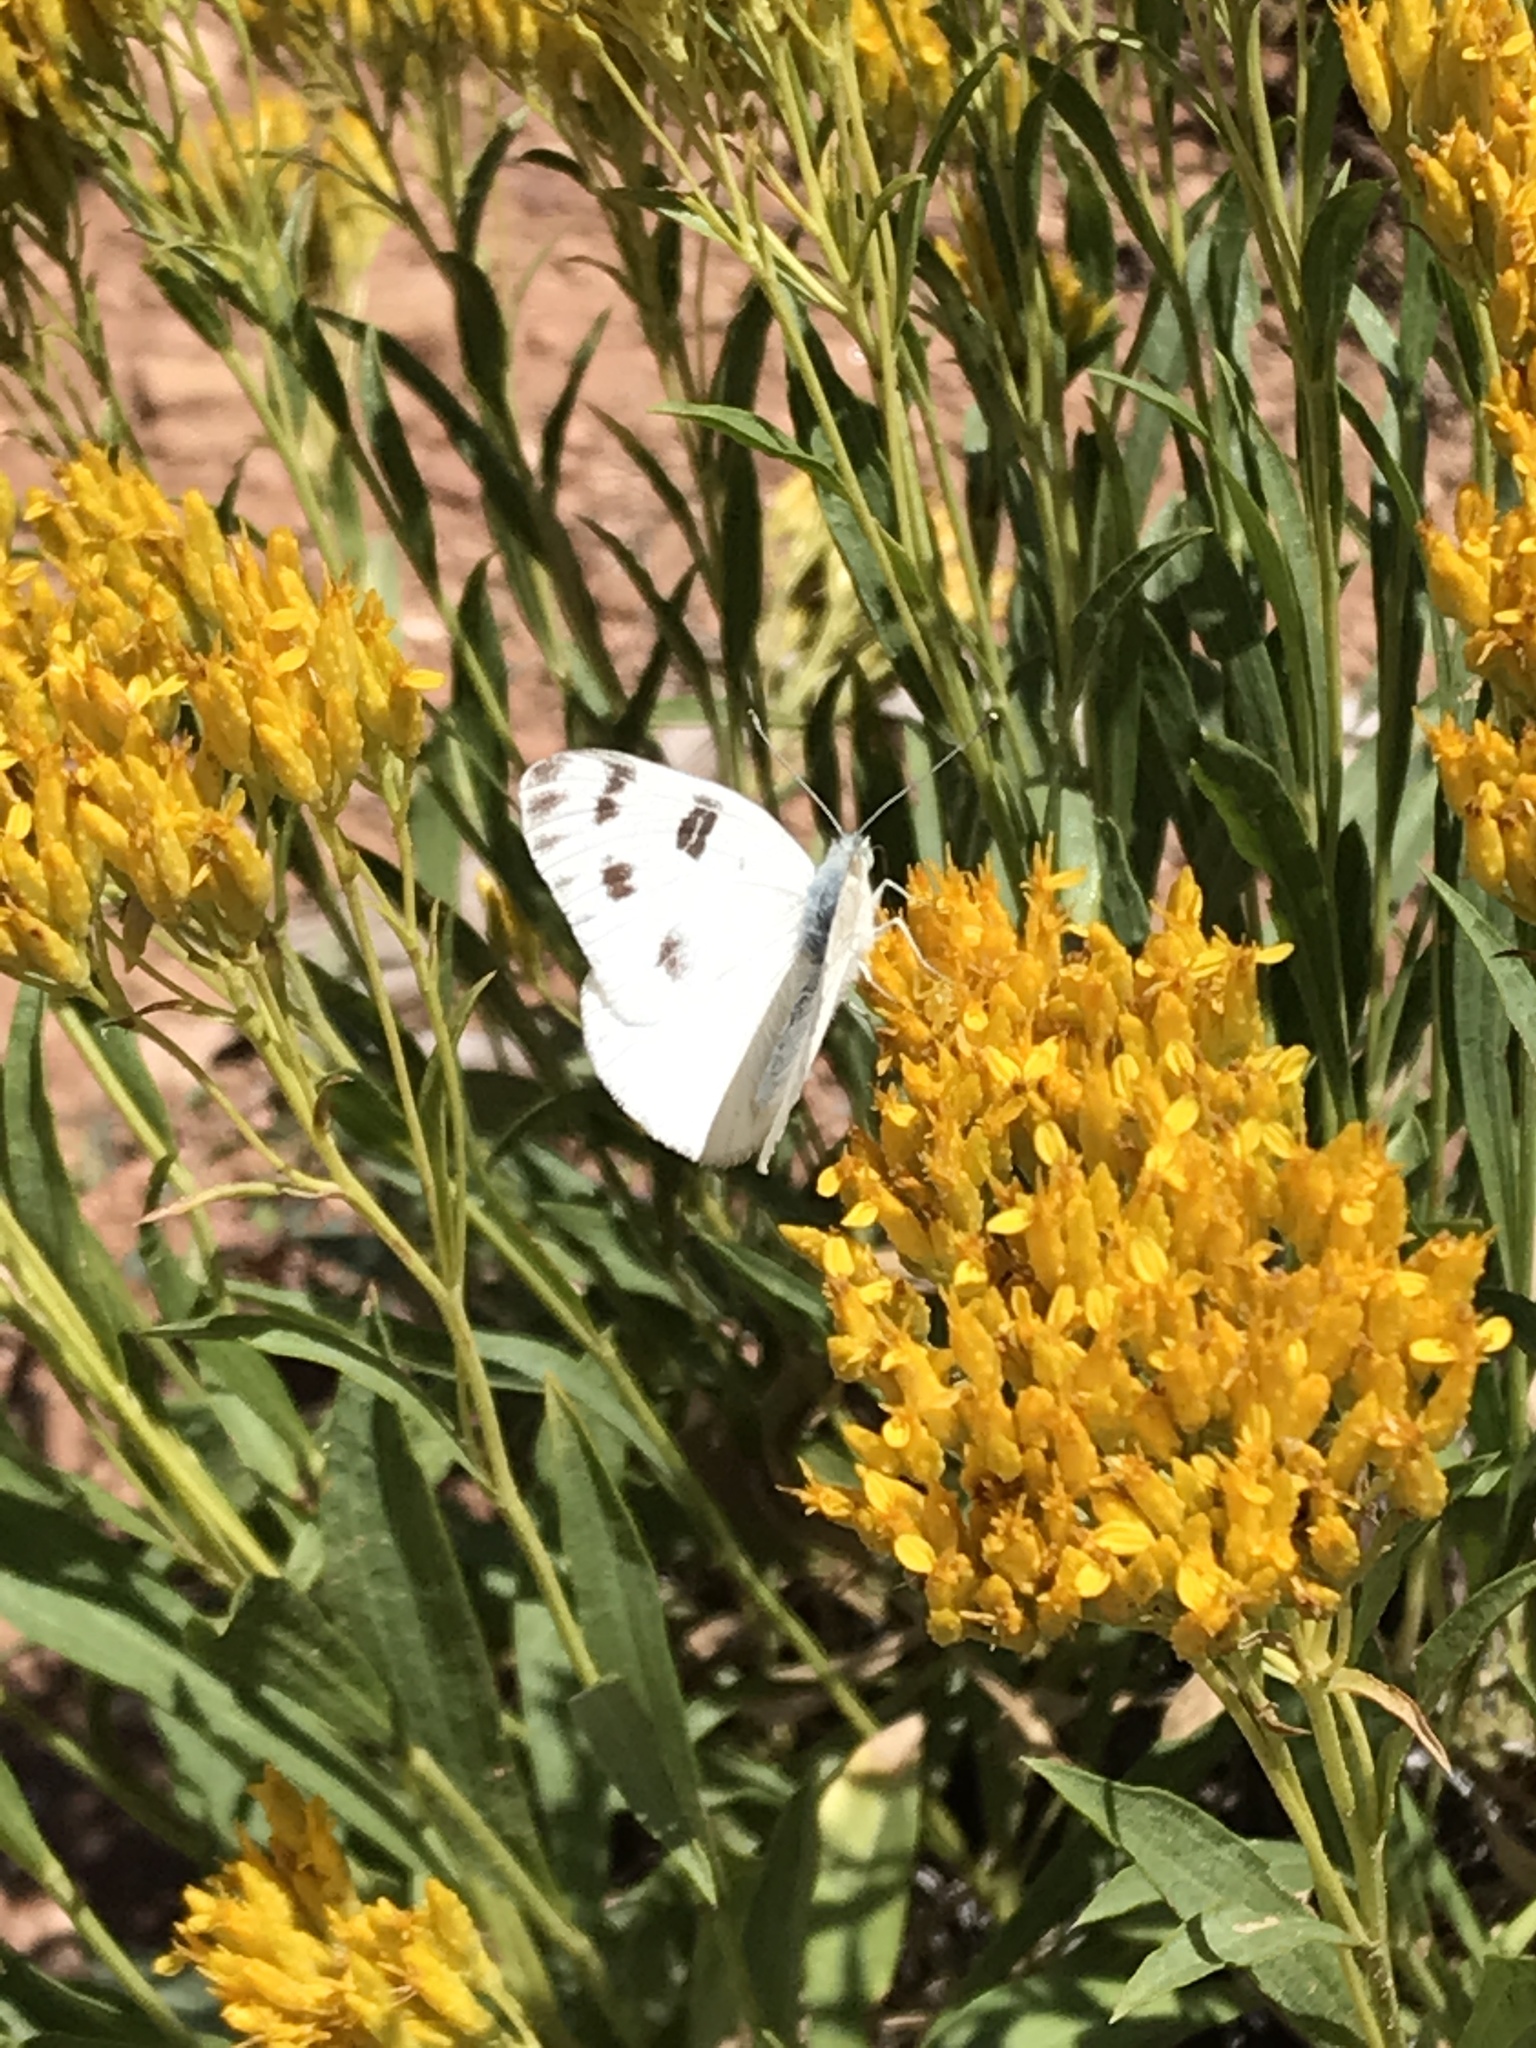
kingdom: Animalia
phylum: Arthropoda
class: Insecta
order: Lepidoptera
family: Pieridae
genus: Pontia
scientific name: Pontia protodice
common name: Checkered white
